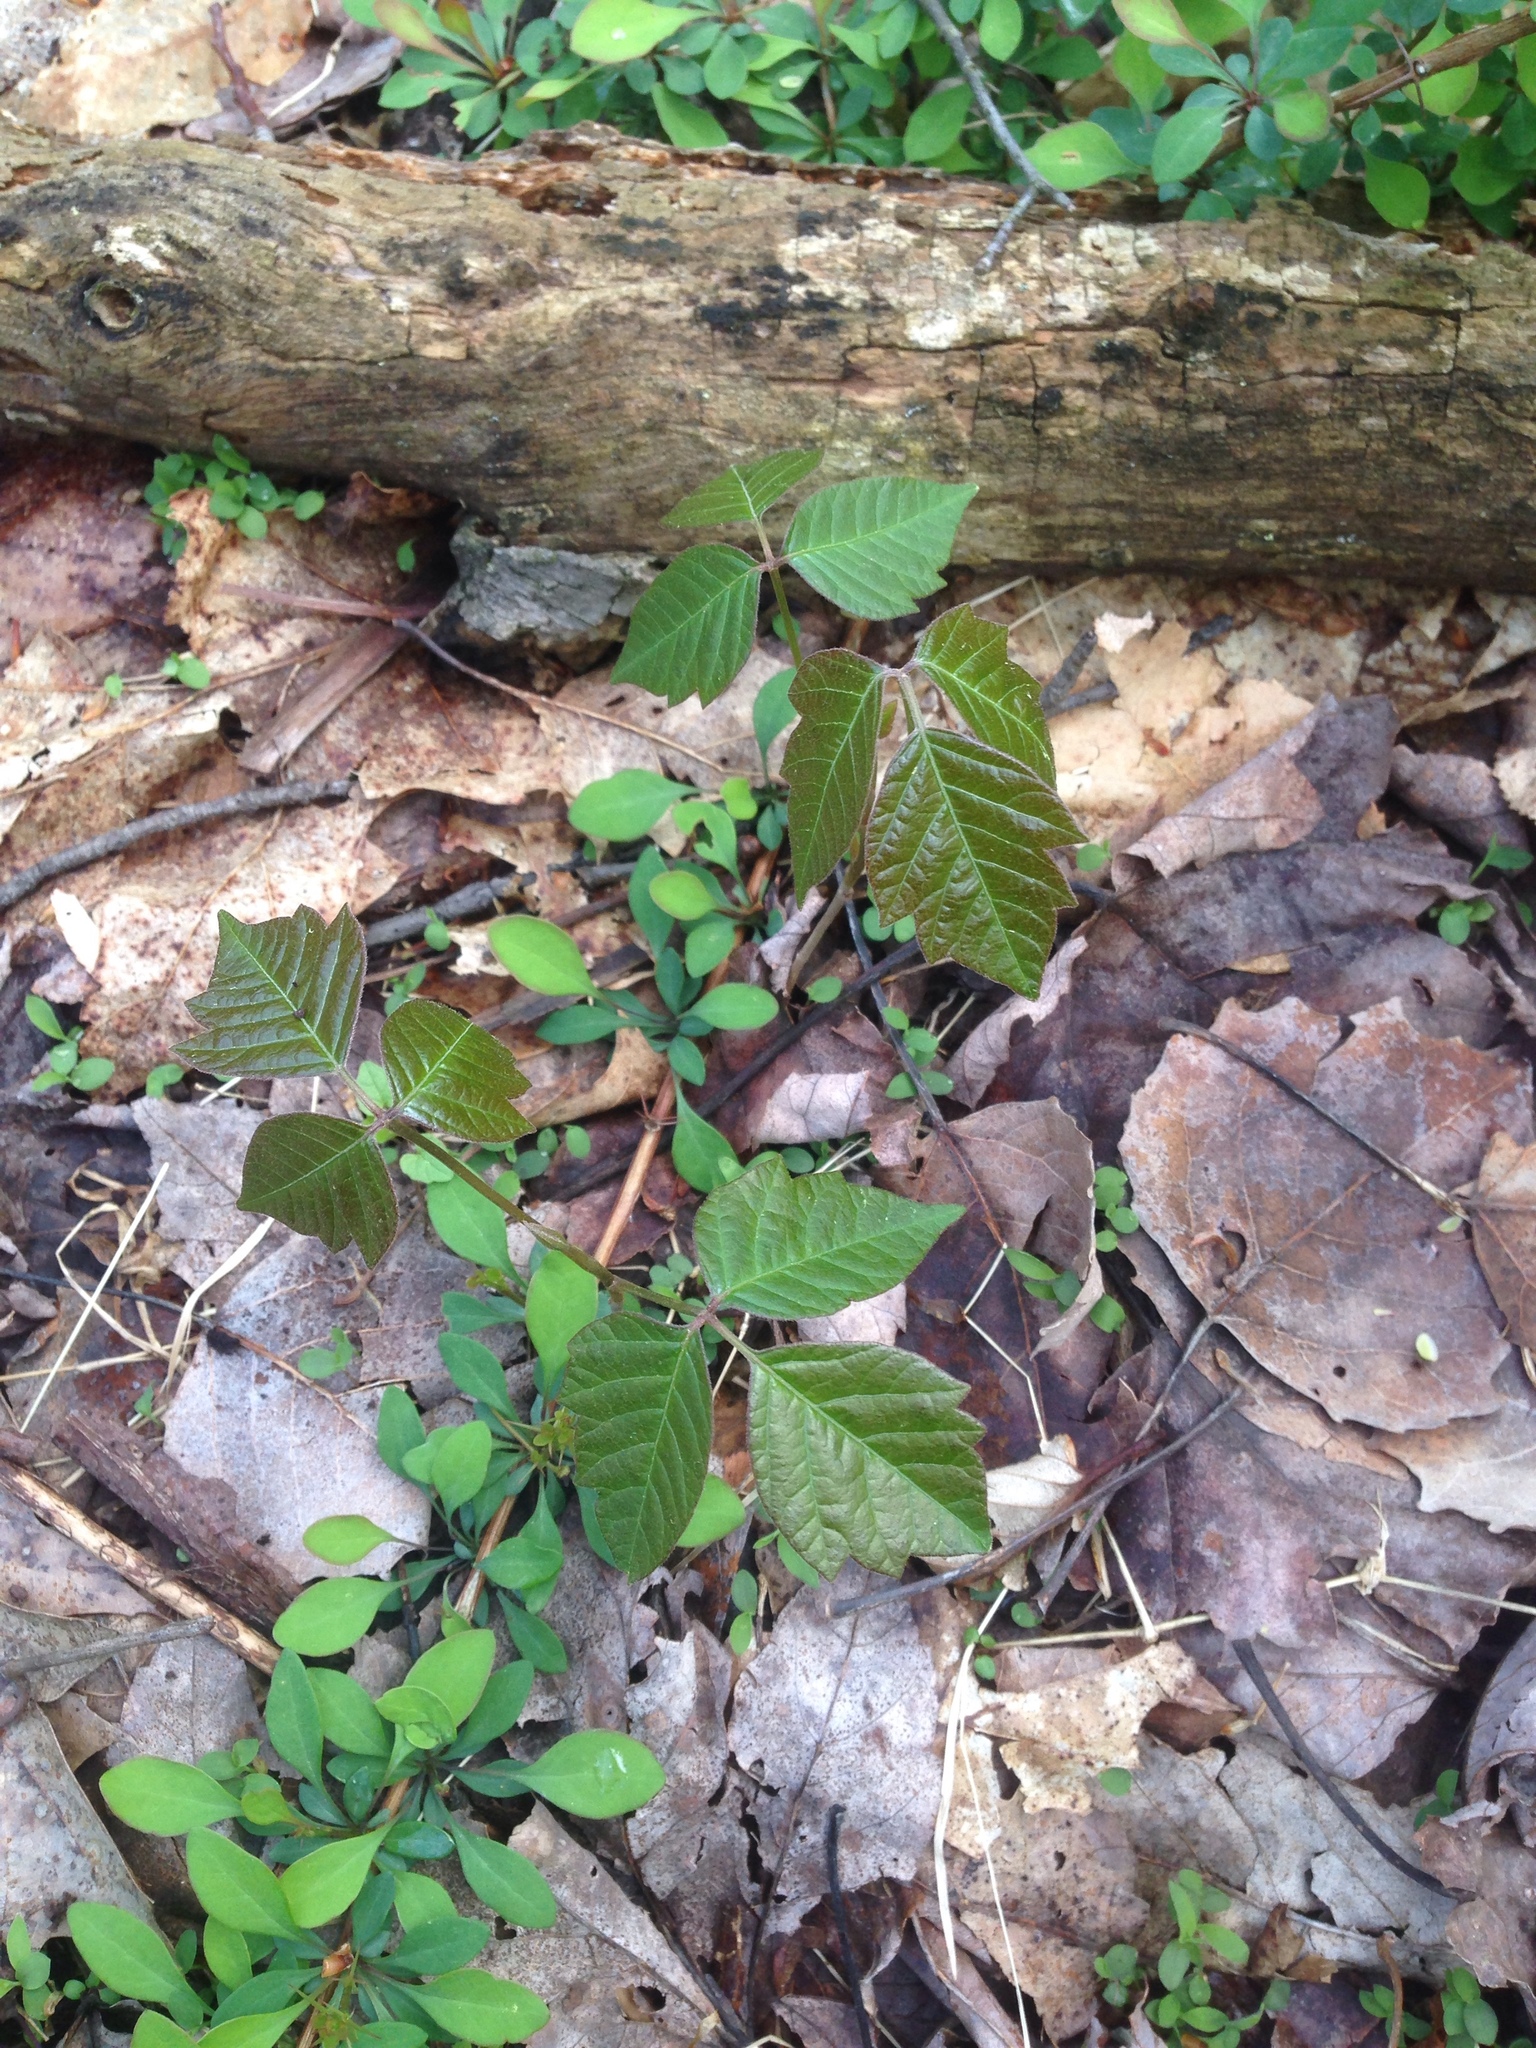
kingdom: Plantae
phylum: Tracheophyta
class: Magnoliopsida
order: Sapindales
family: Anacardiaceae
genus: Toxicodendron
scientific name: Toxicodendron radicans
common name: Poison ivy
